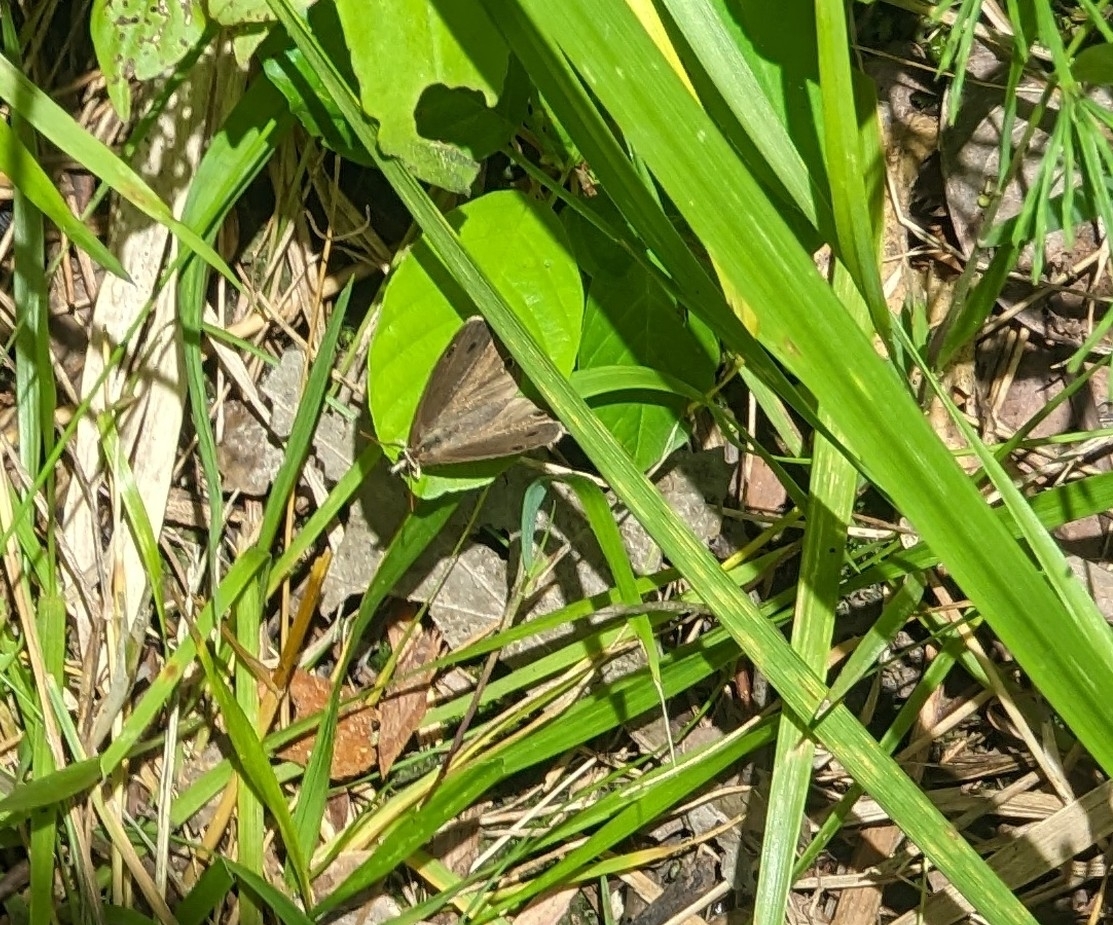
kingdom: Animalia
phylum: Arthropoda
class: Insecta
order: Lepidoptera
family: Nymphalidae
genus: Euptychia
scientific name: Euptychia cymela
